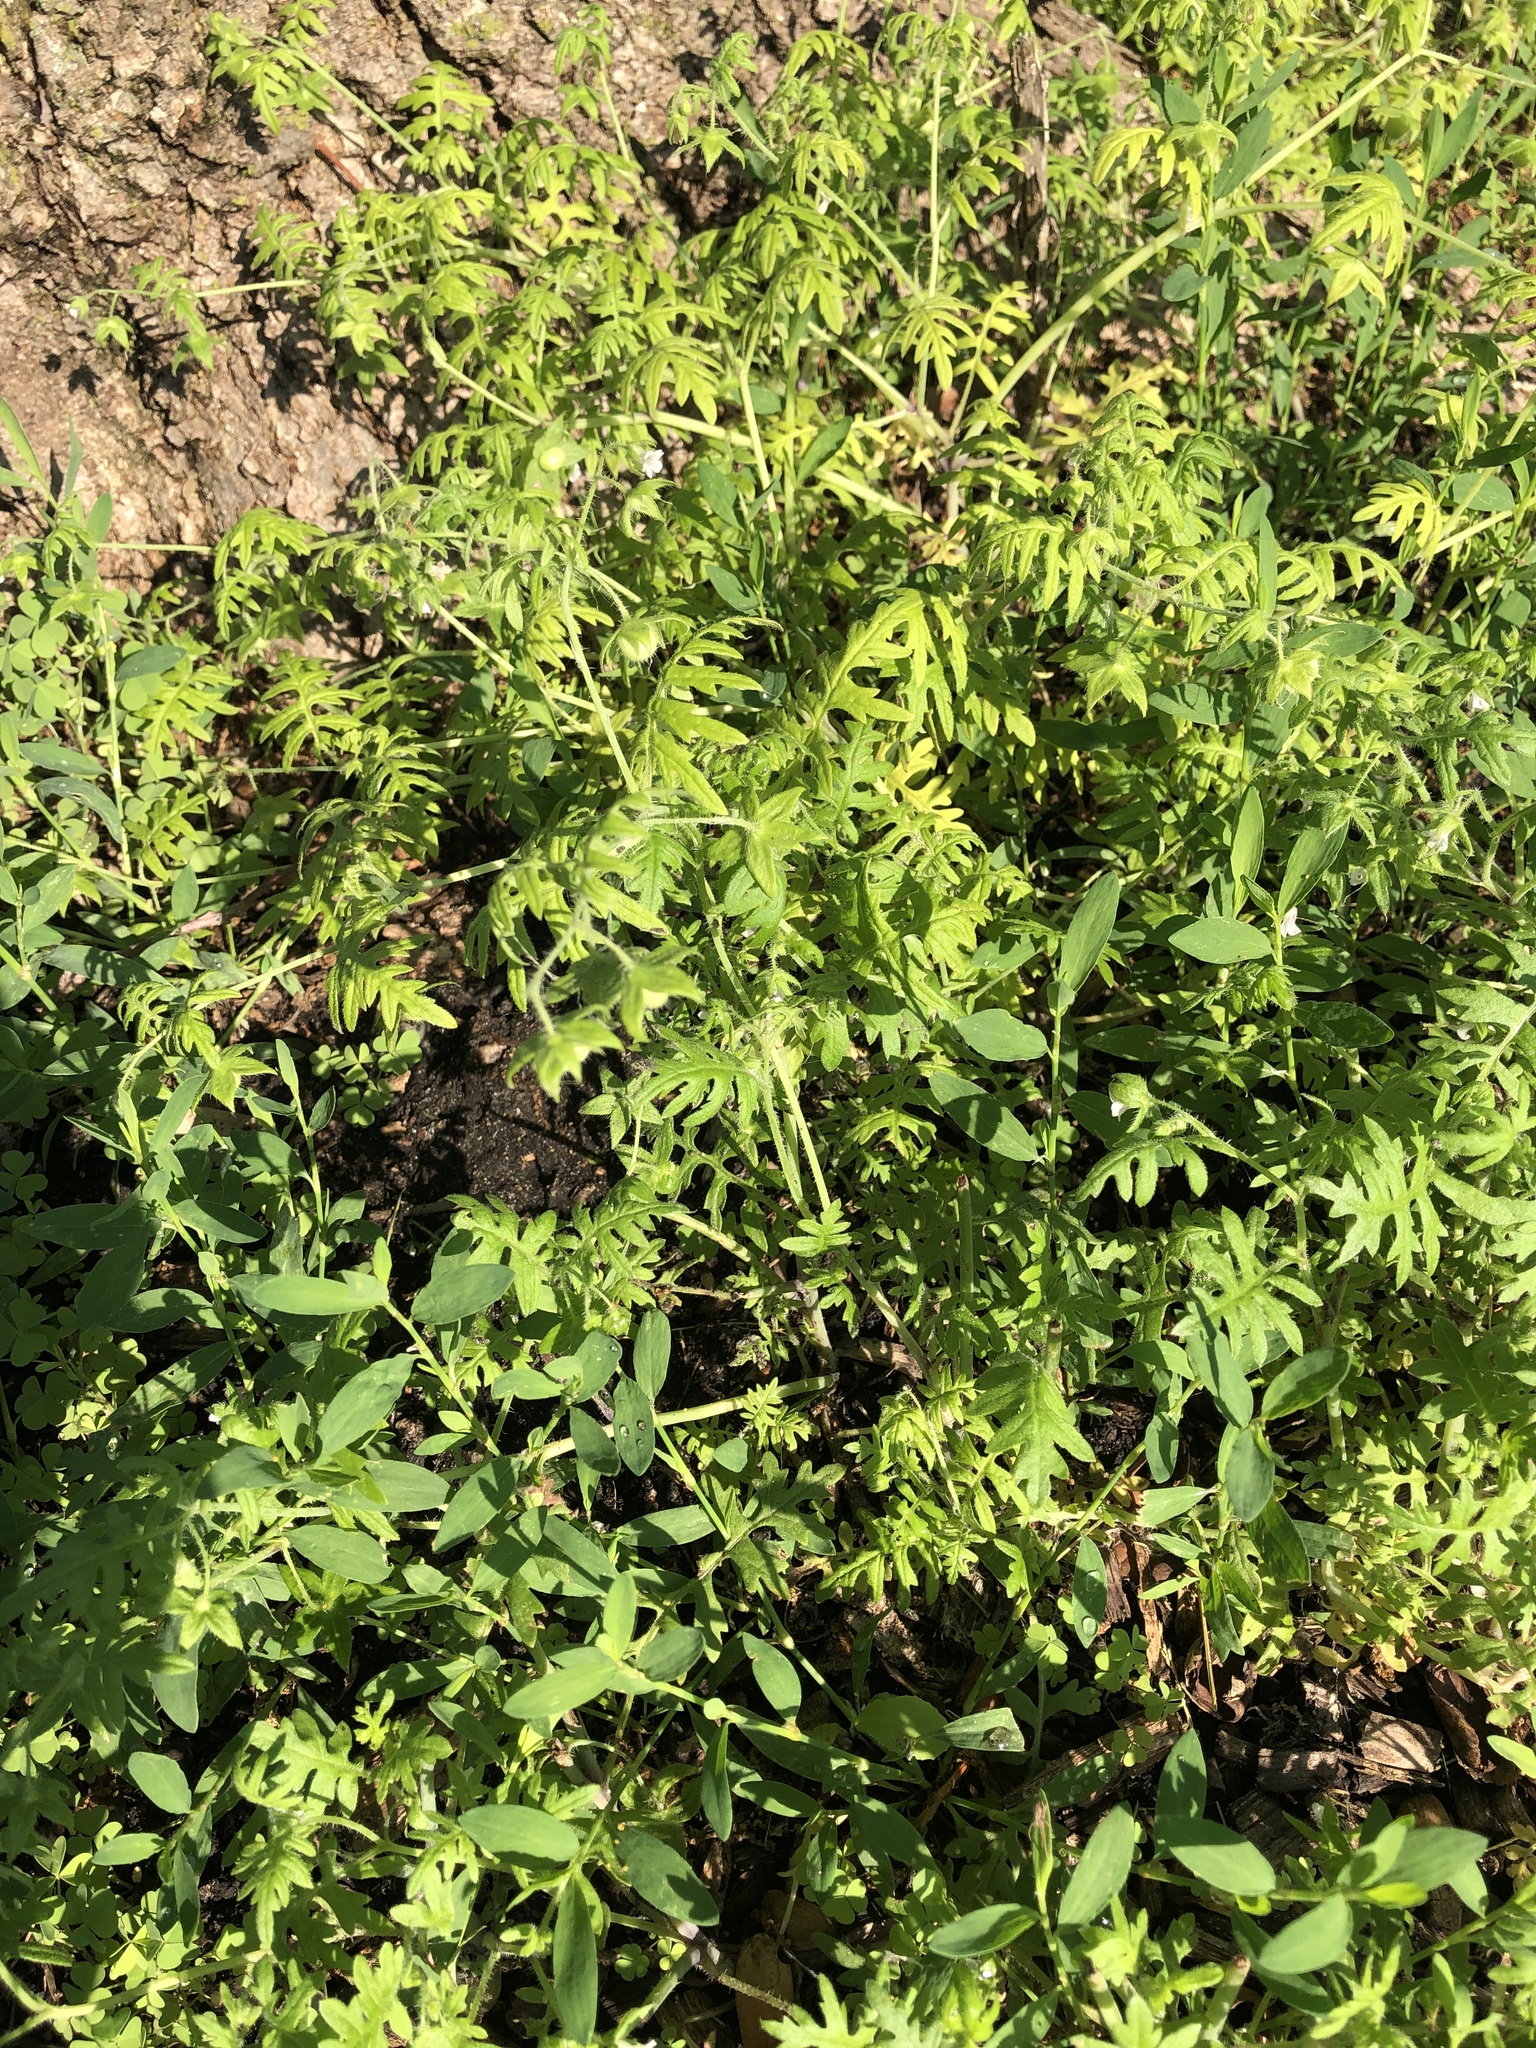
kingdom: Plantae
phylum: Tracheophyta
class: Magnoliopsida
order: Boraginales
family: Hydrophyllaceae
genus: Ellisia
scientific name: Ellisia nyctelea
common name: Aunt lucy
